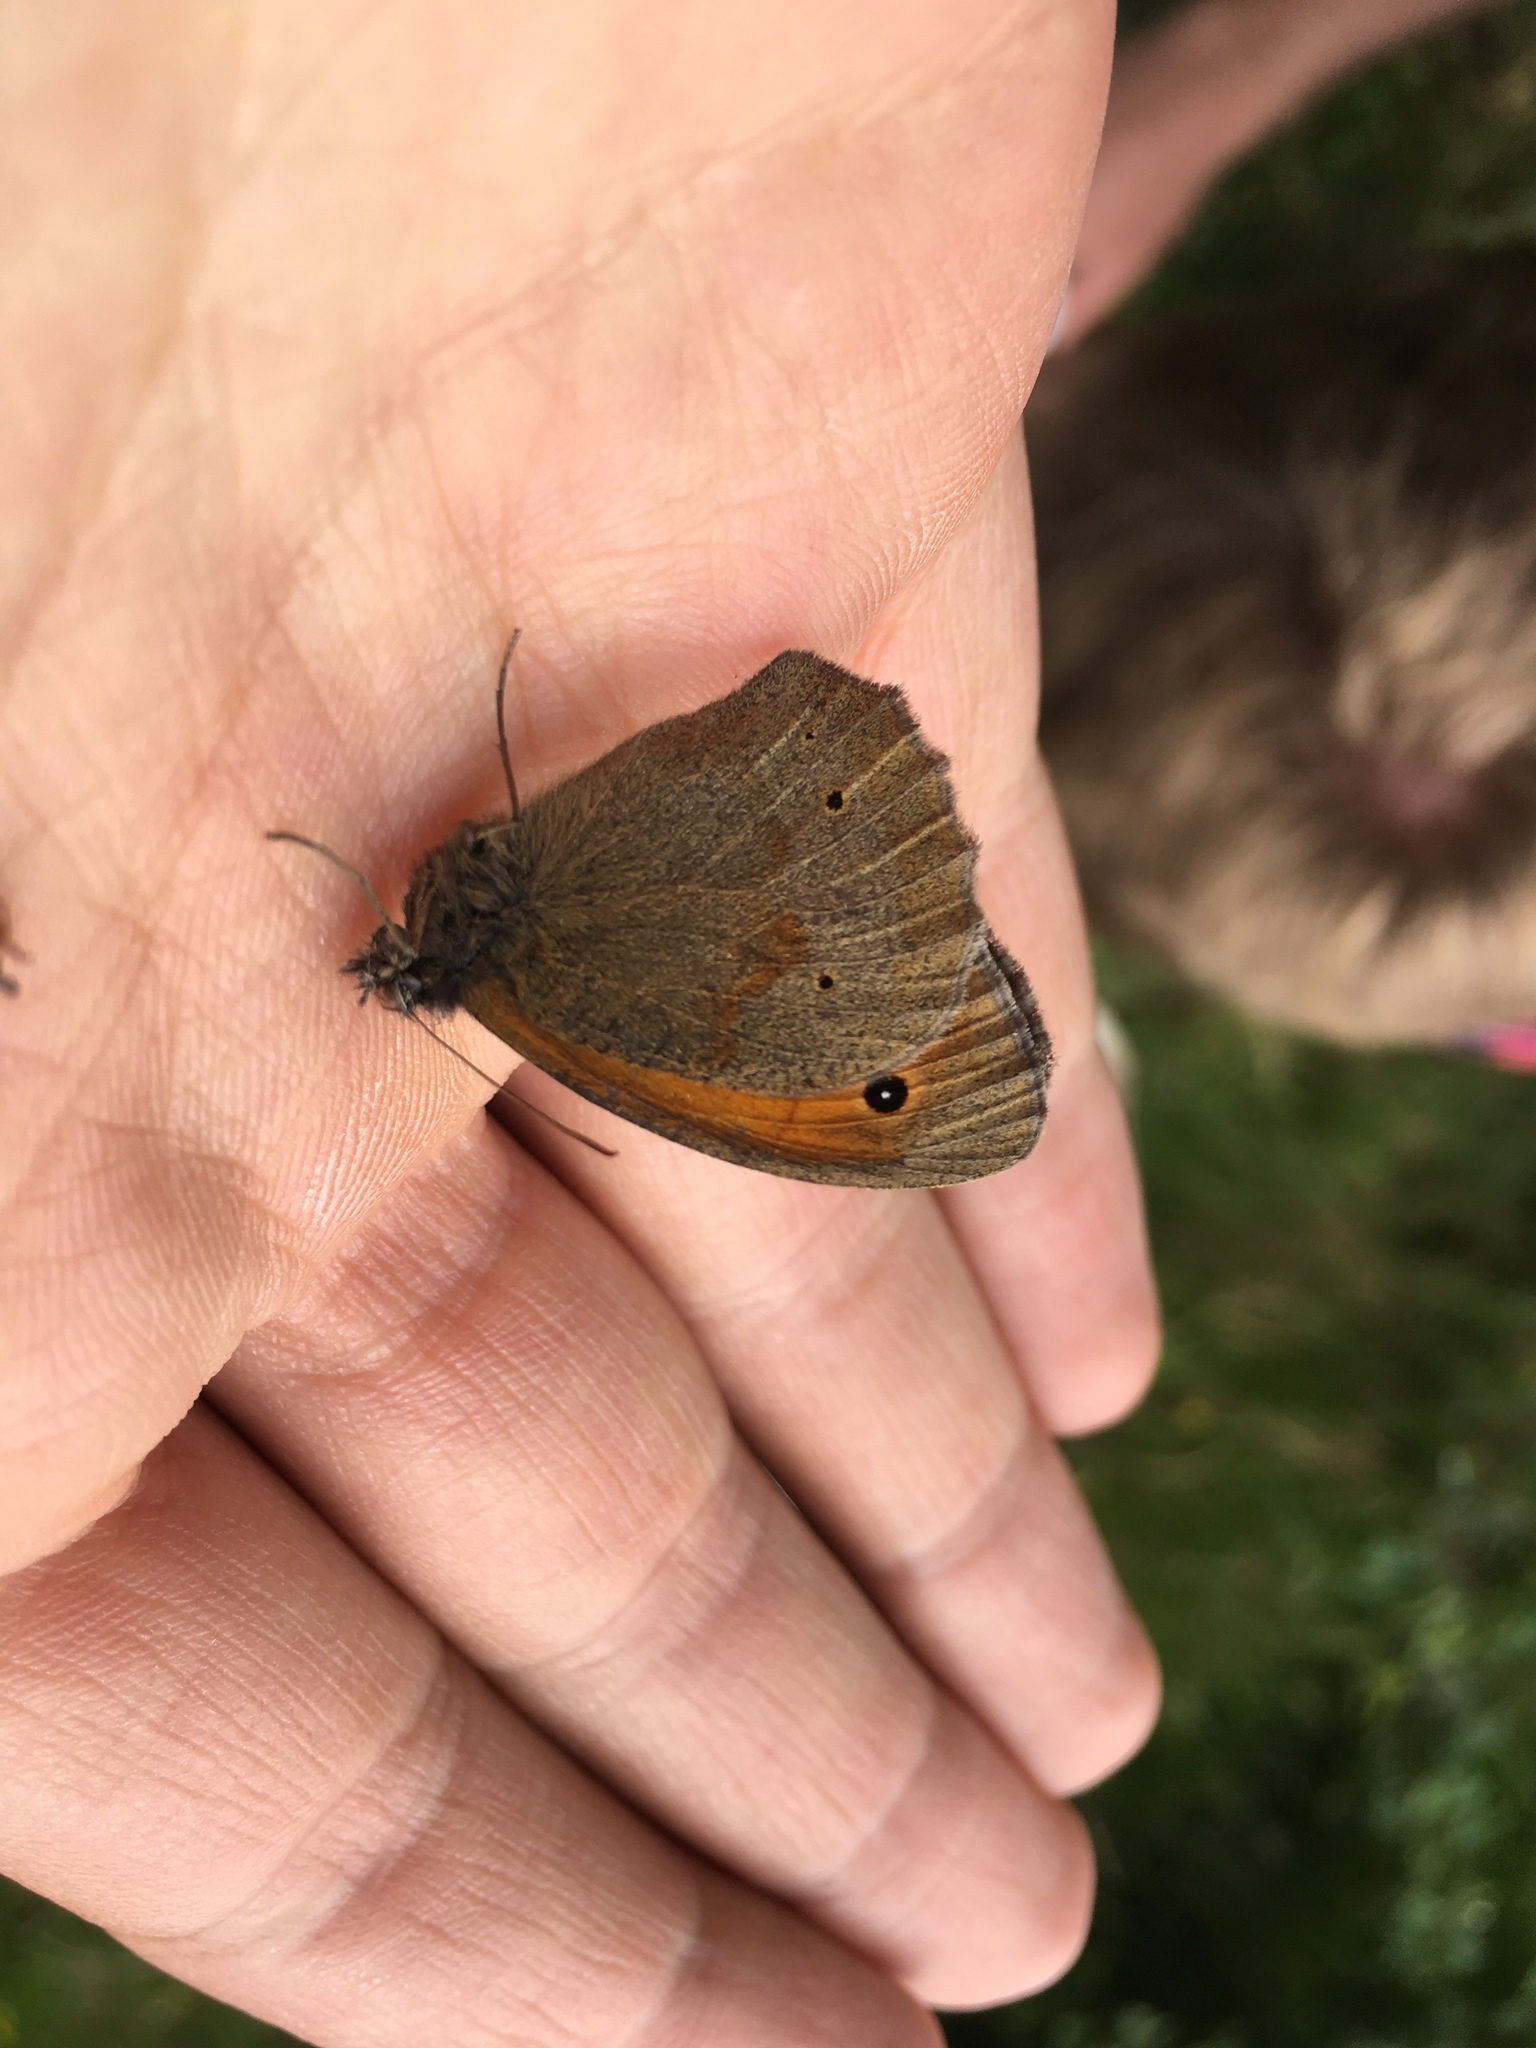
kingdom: Animalia
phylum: Arthropoda
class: Insecta
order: Lepidoptera
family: Nymphalidae
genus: Maniola
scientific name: Maniola jurtina
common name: Meadow brown
